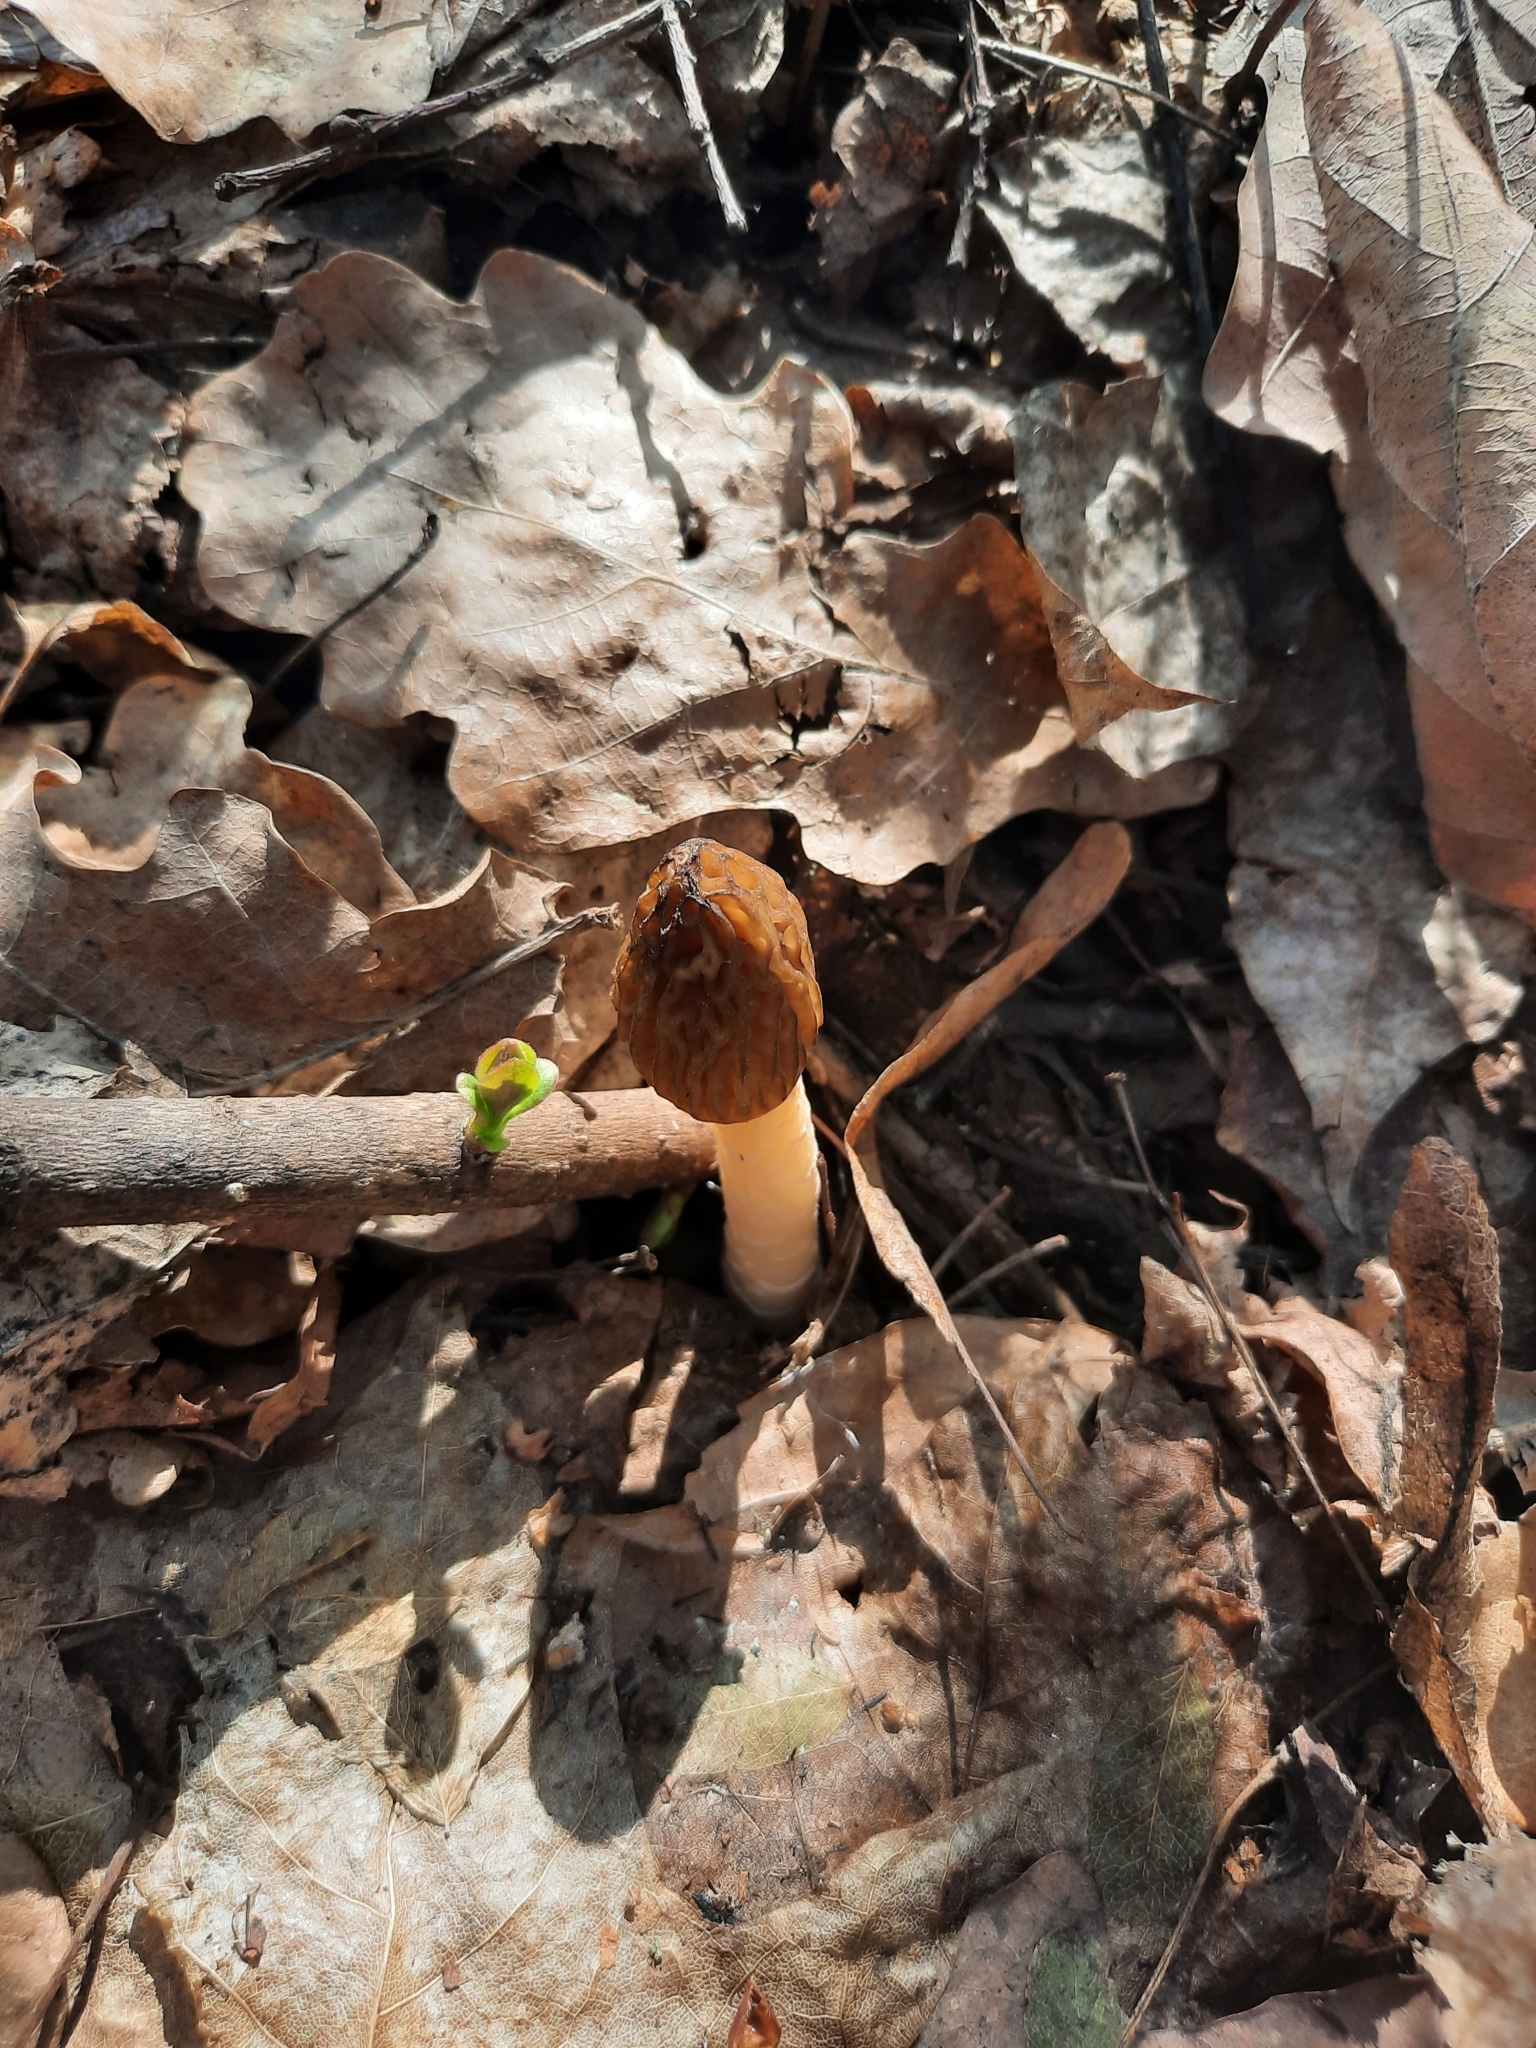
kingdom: Fungi
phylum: Ascomycota
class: Pezizomycetes
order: Pezizales
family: Morchellaceae
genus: Verpa
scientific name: Verpa bohemica
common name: Wrinkled thimble morel
